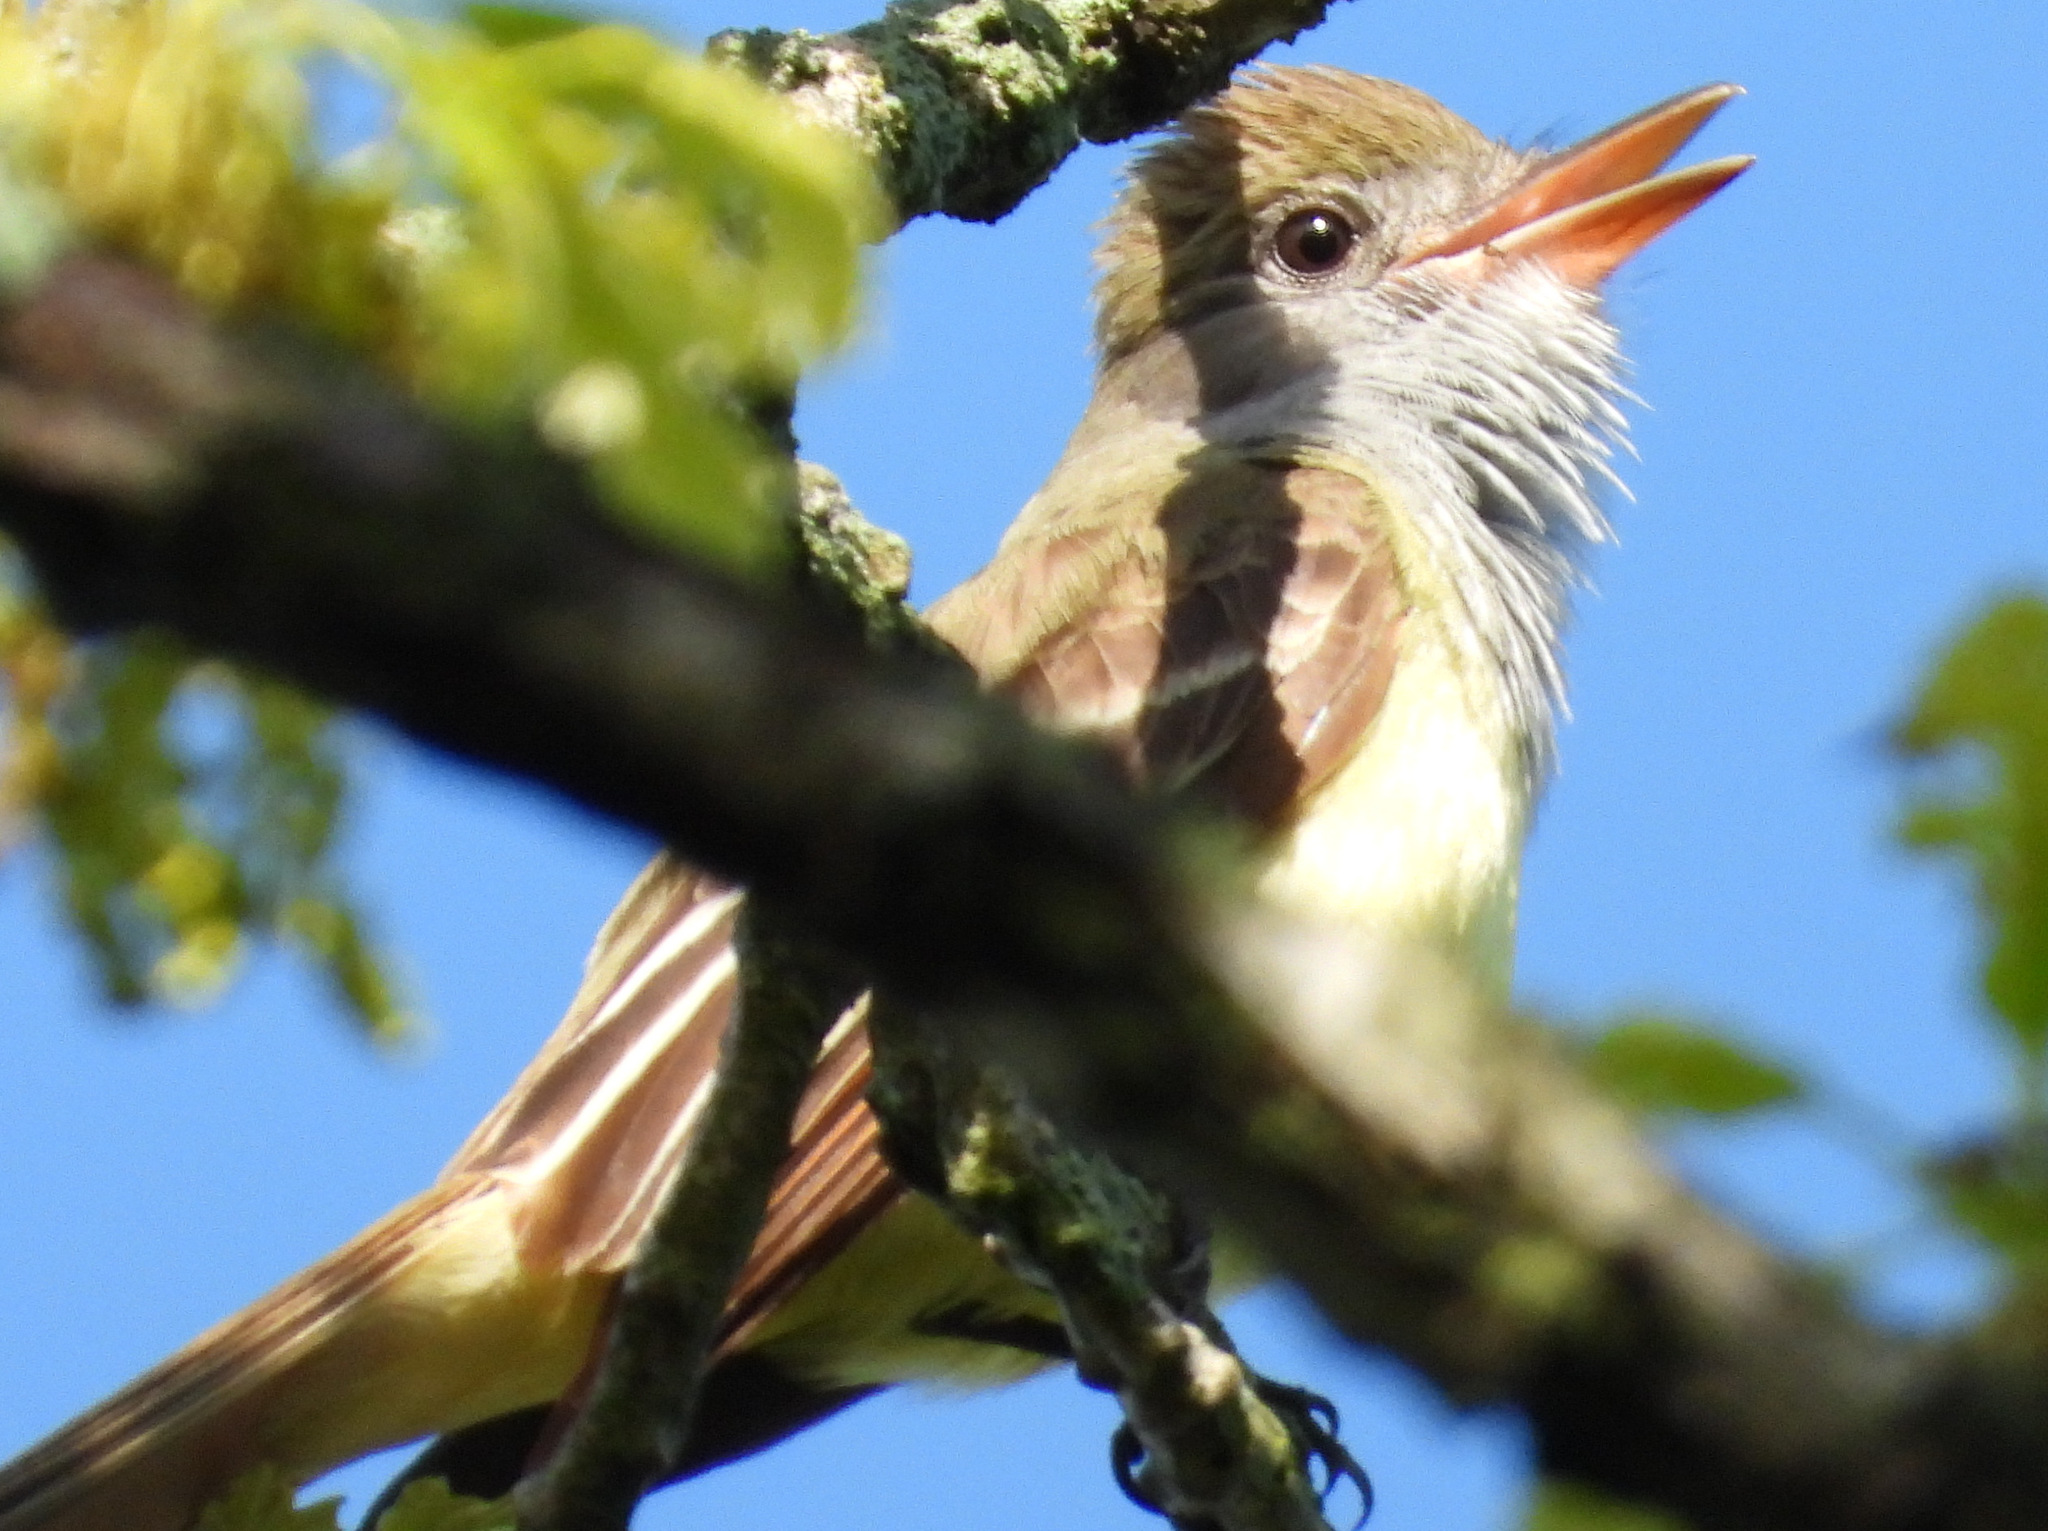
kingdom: Animalia
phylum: Chordata
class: Aves
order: Passeriformes
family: Tyrannidae
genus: Myiarchus
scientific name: Myiarchus crinitus
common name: Great crested flycatcher
